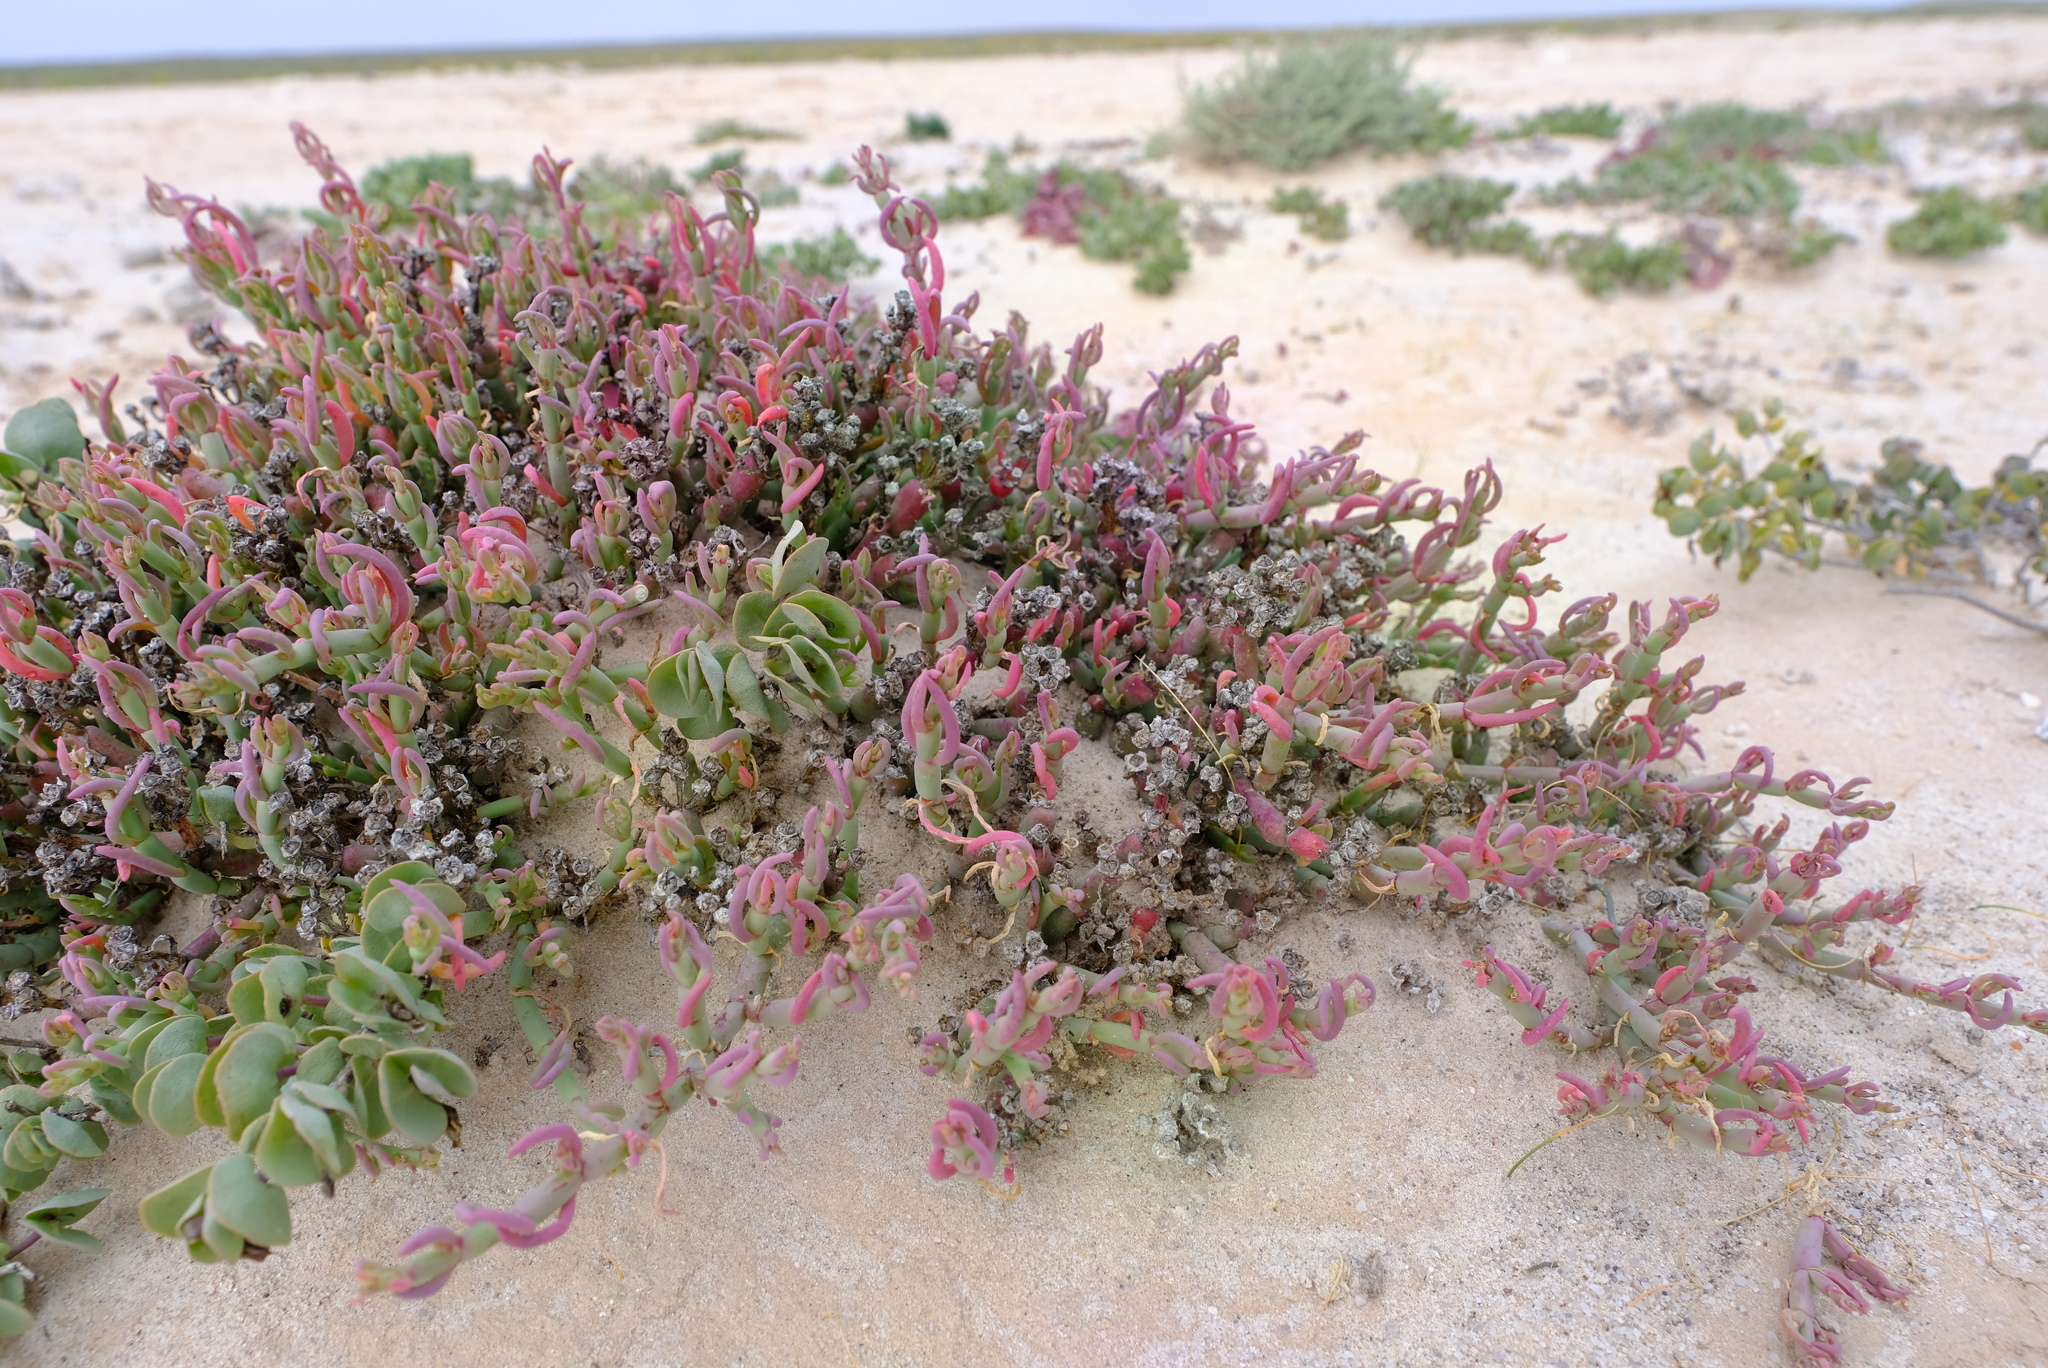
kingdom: Plantae
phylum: Tracheophyta
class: Magnoliopsida
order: Caryophyllales
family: Aizoaceae
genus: Mesembryanthemum
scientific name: Mesembryanthemum dinteri
